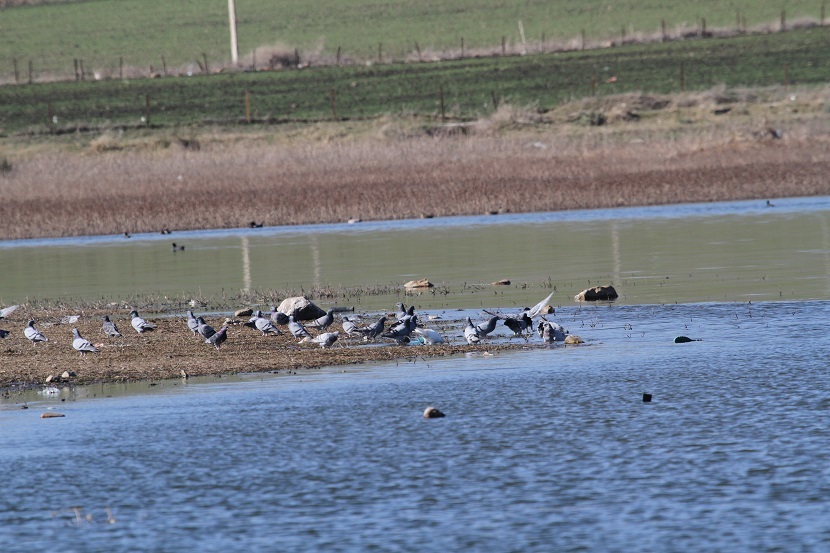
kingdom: Animalia
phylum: Chordata
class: Aves
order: Columbiformes
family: Columbidae
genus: Columba
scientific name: Columba livia
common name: Rock pigeon
